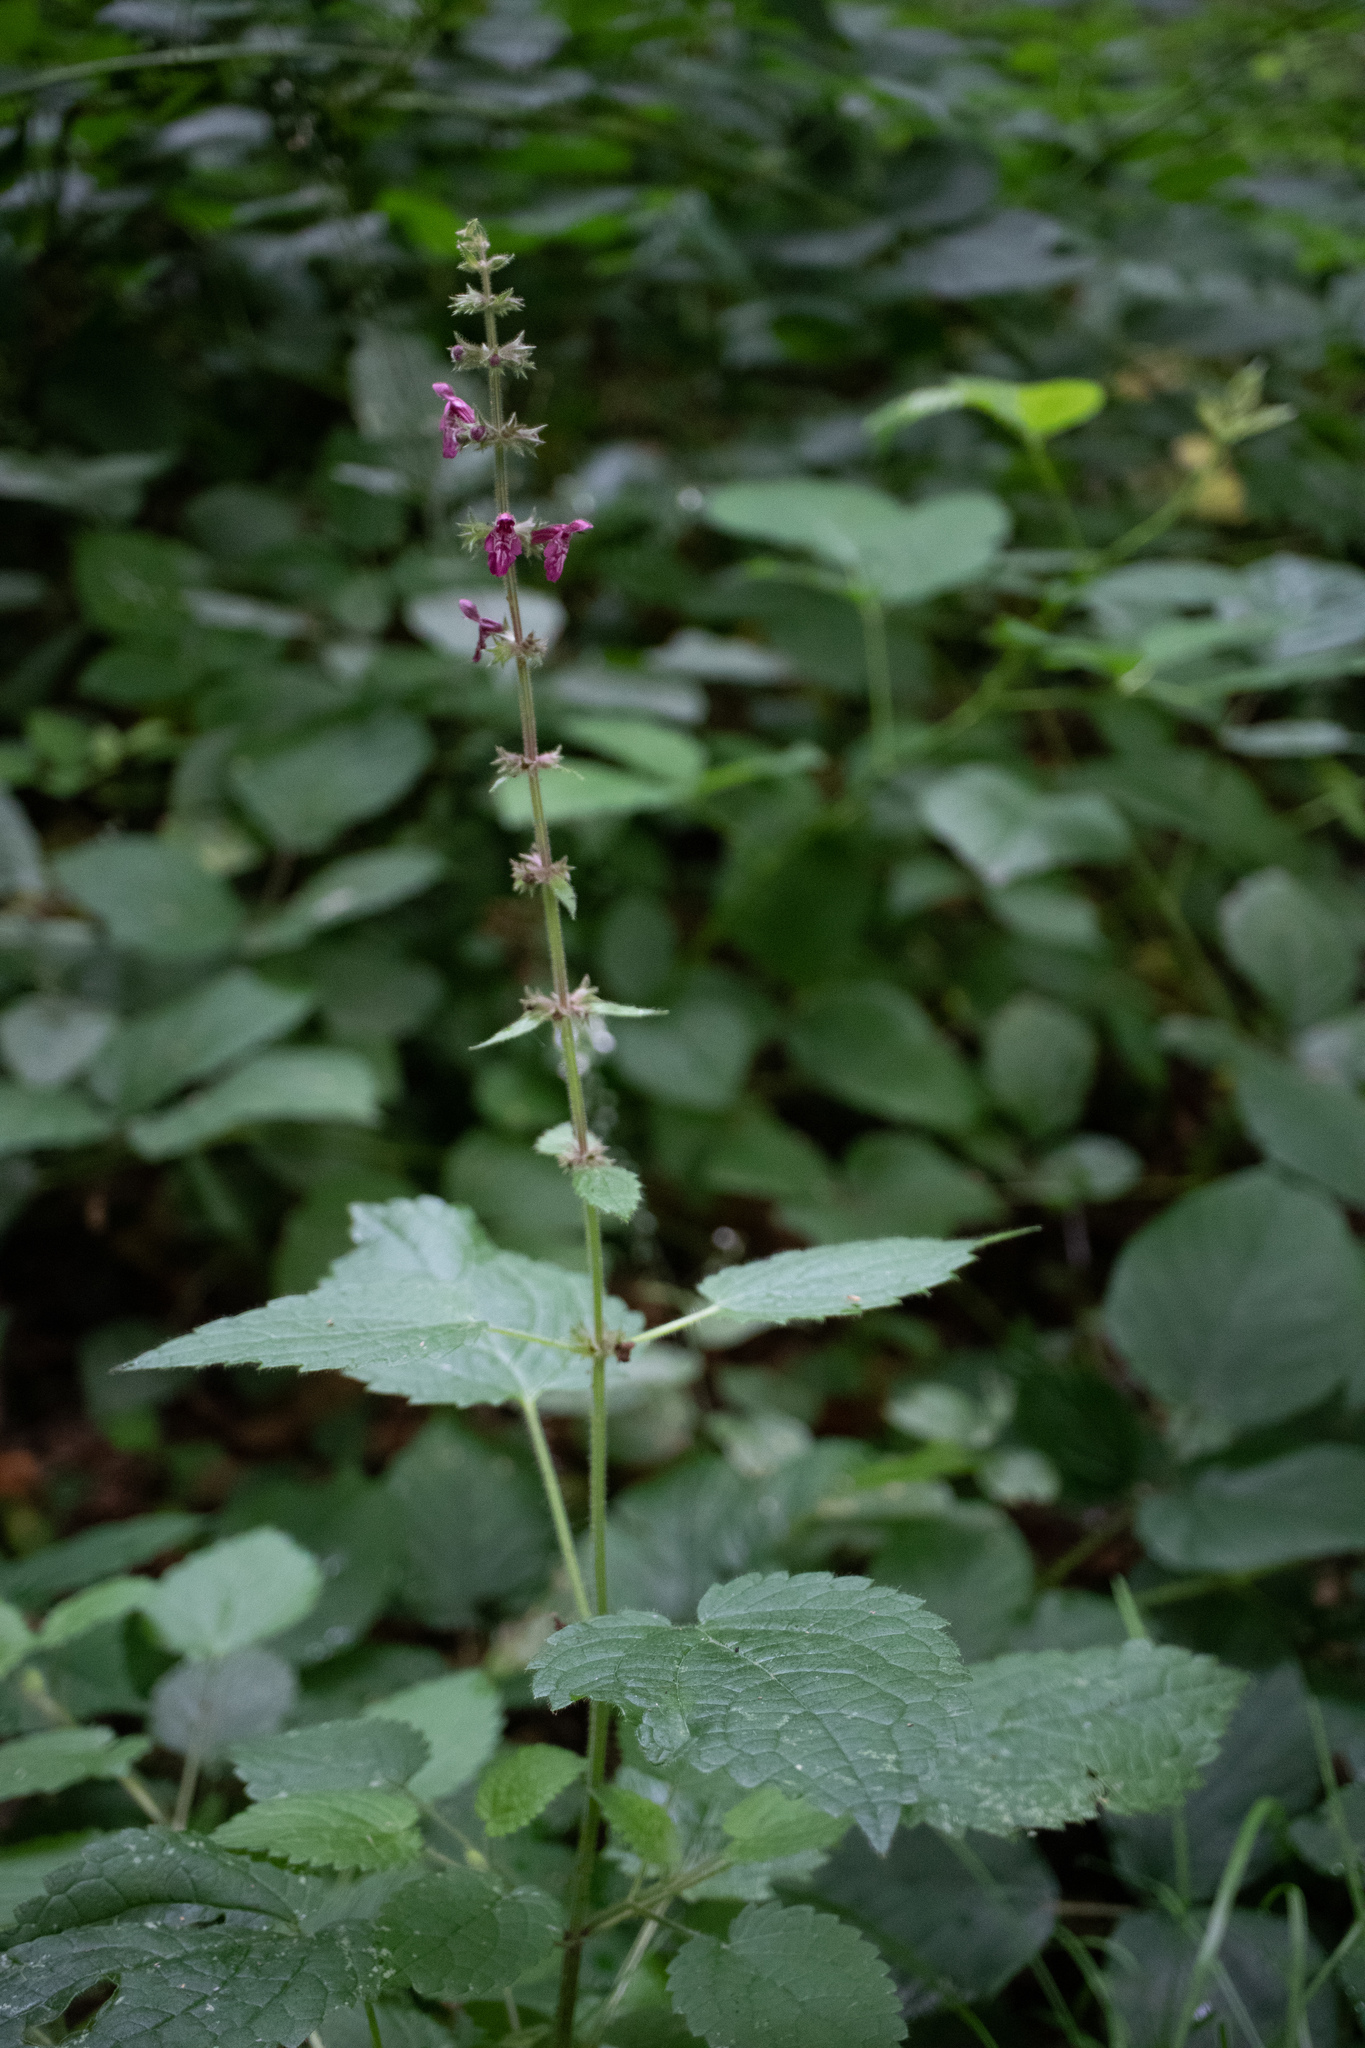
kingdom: Plantae
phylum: Tracheophyta
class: Magnoliopsida
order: Lamiales
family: Lamiaceae
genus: Stachys
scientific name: Stachys sylvatica
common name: Hedge woundwort
